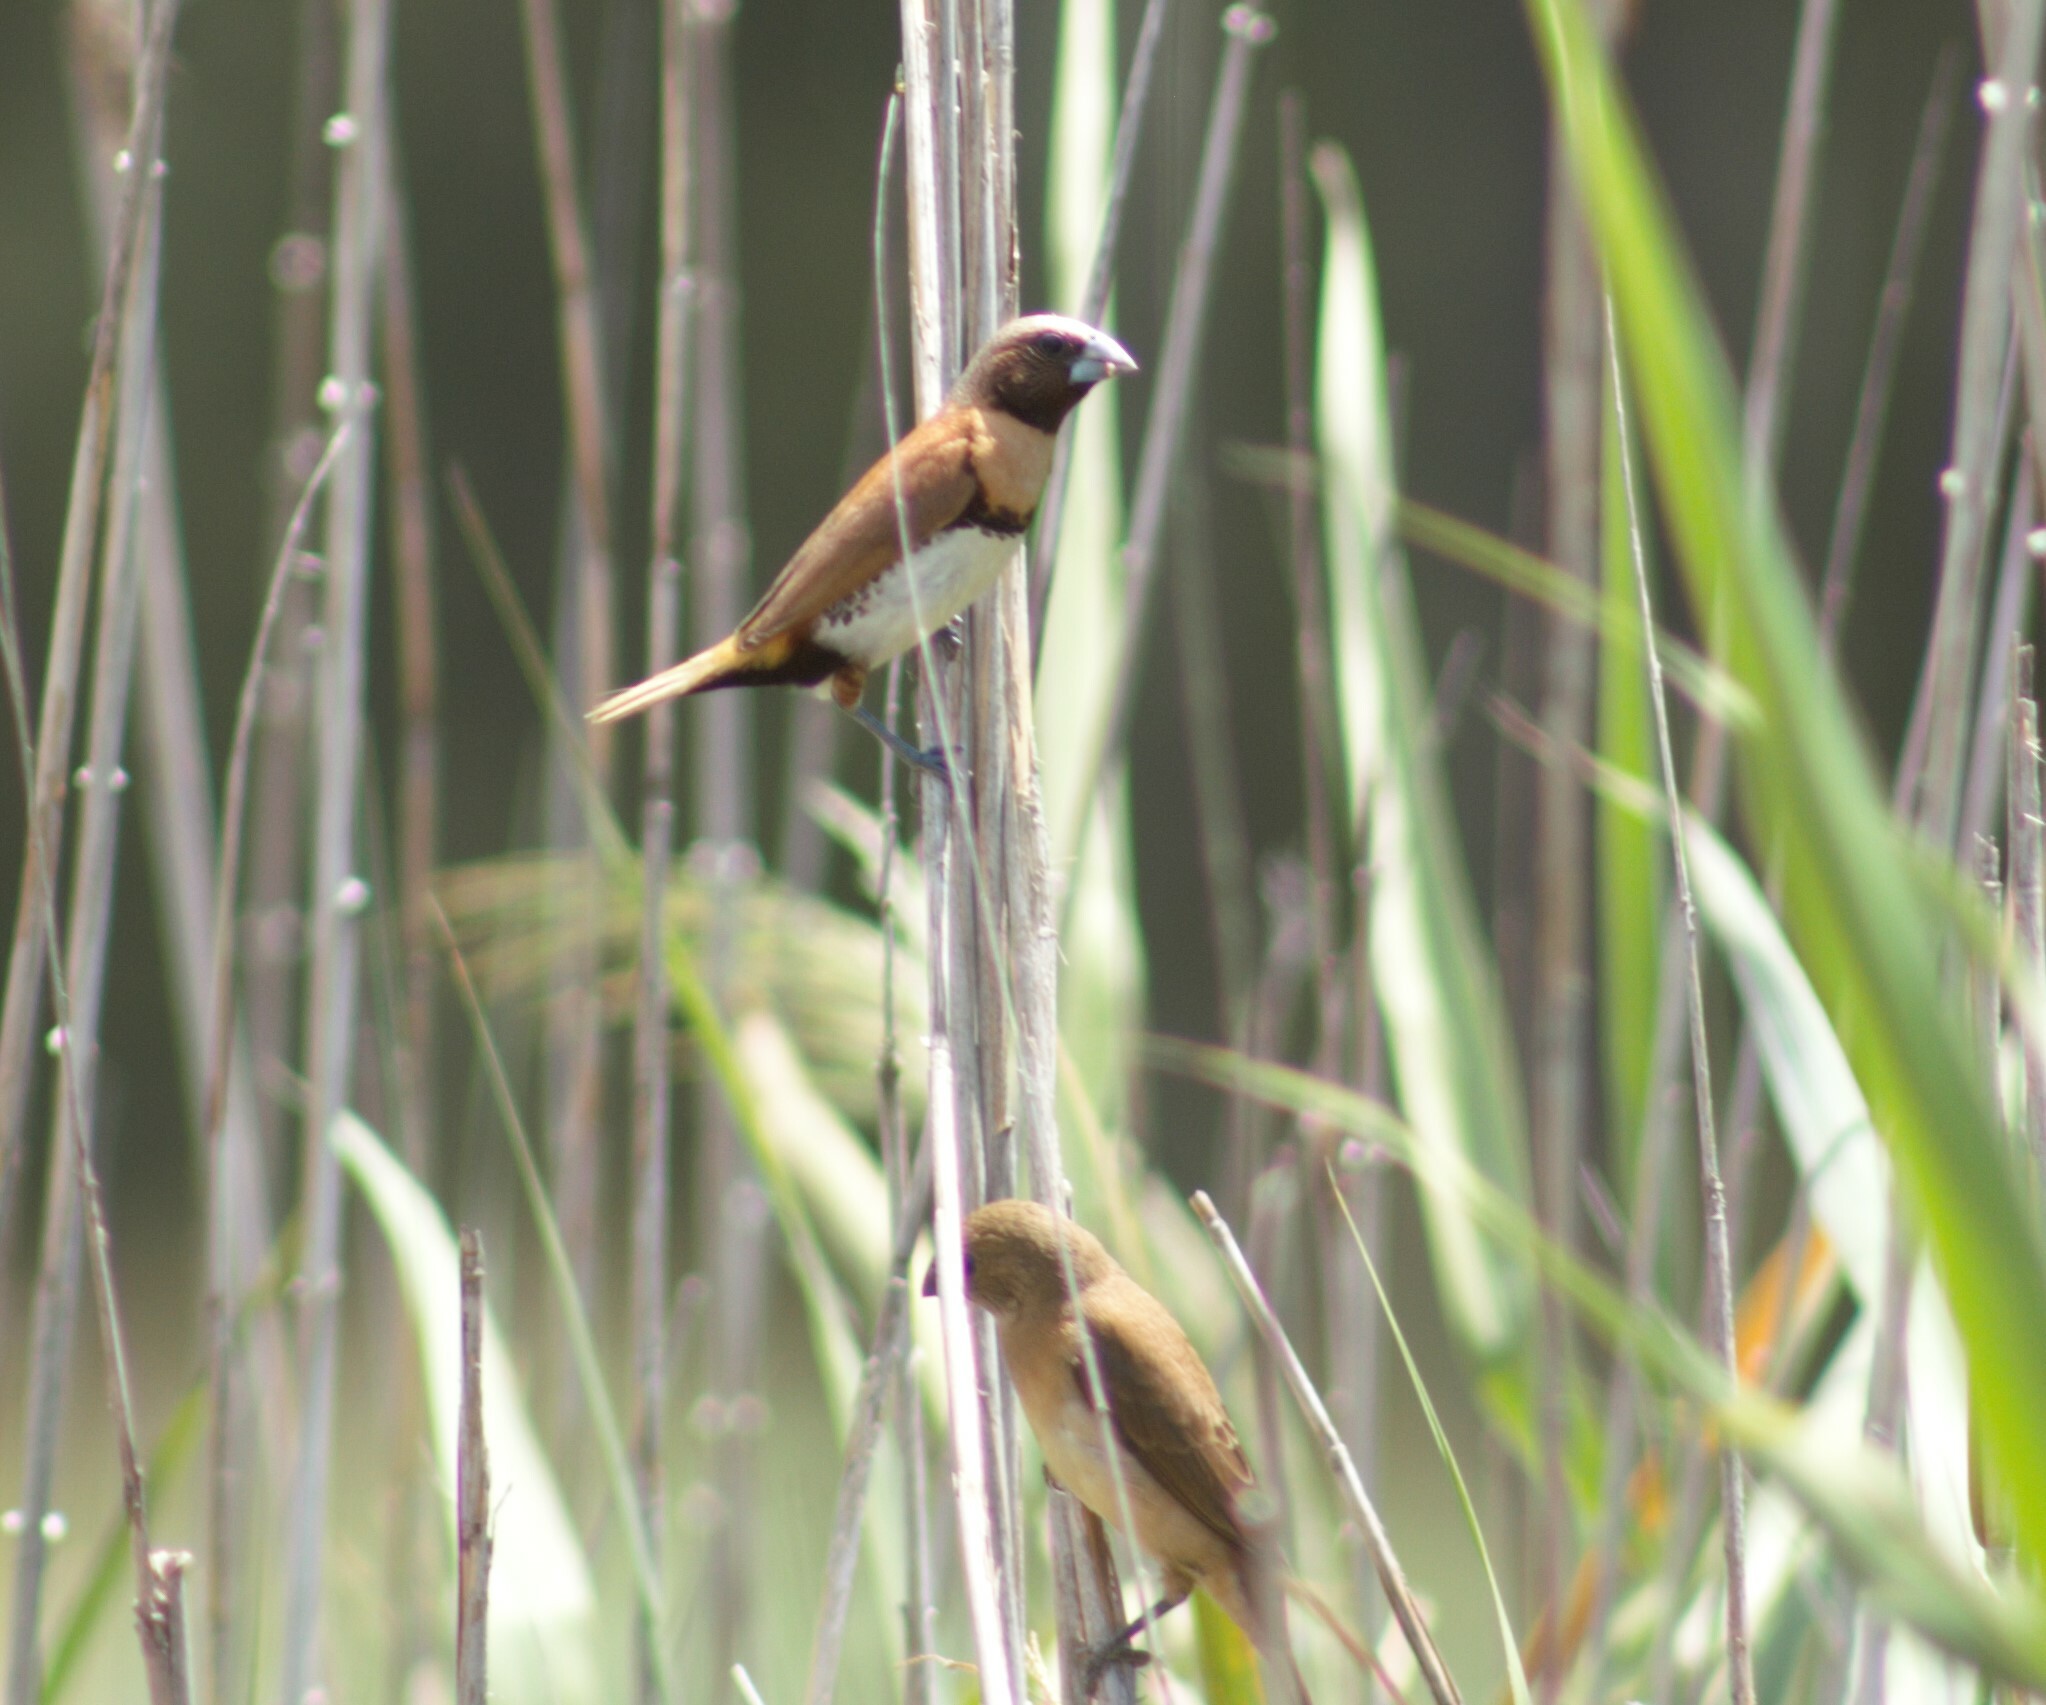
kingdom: Animalia
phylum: Chordata
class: Aves
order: Passeriformes
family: Estrildidae
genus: Lonchura
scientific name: Lonchura castaneothorax
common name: Chestnut-breasted mannikin
